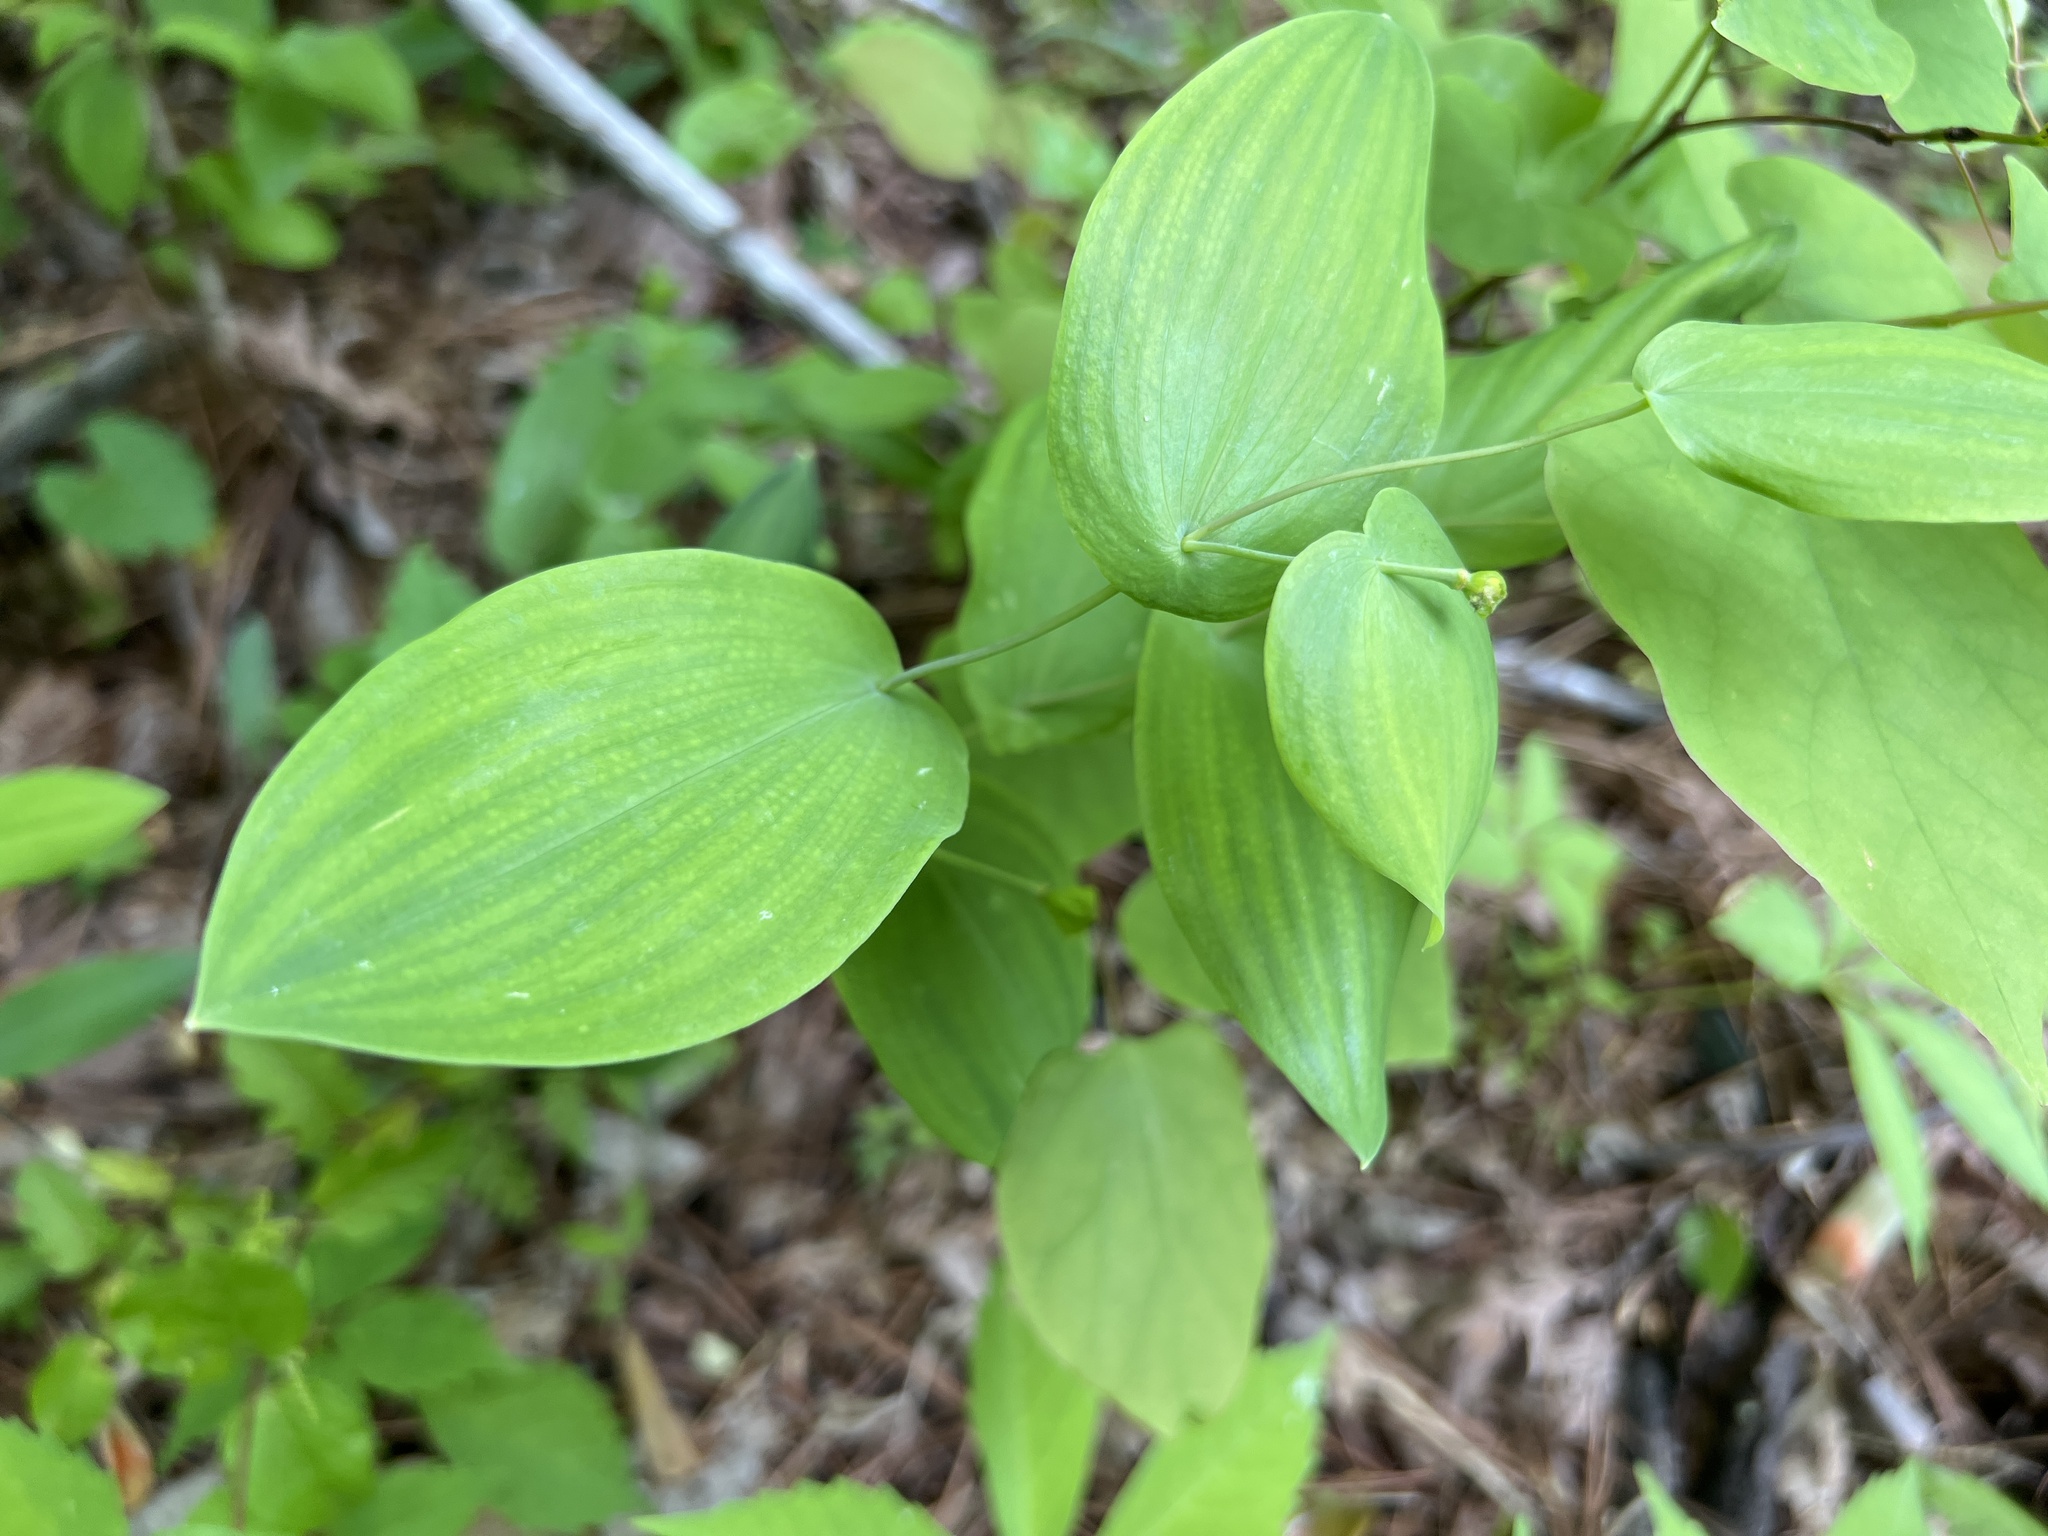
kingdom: Plantae
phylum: Tracheophyta
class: Liliopsida
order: Liliales
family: Colchicaceae
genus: Uvularia
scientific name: Uvularia perfoliata
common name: Perfoliate bellwort
